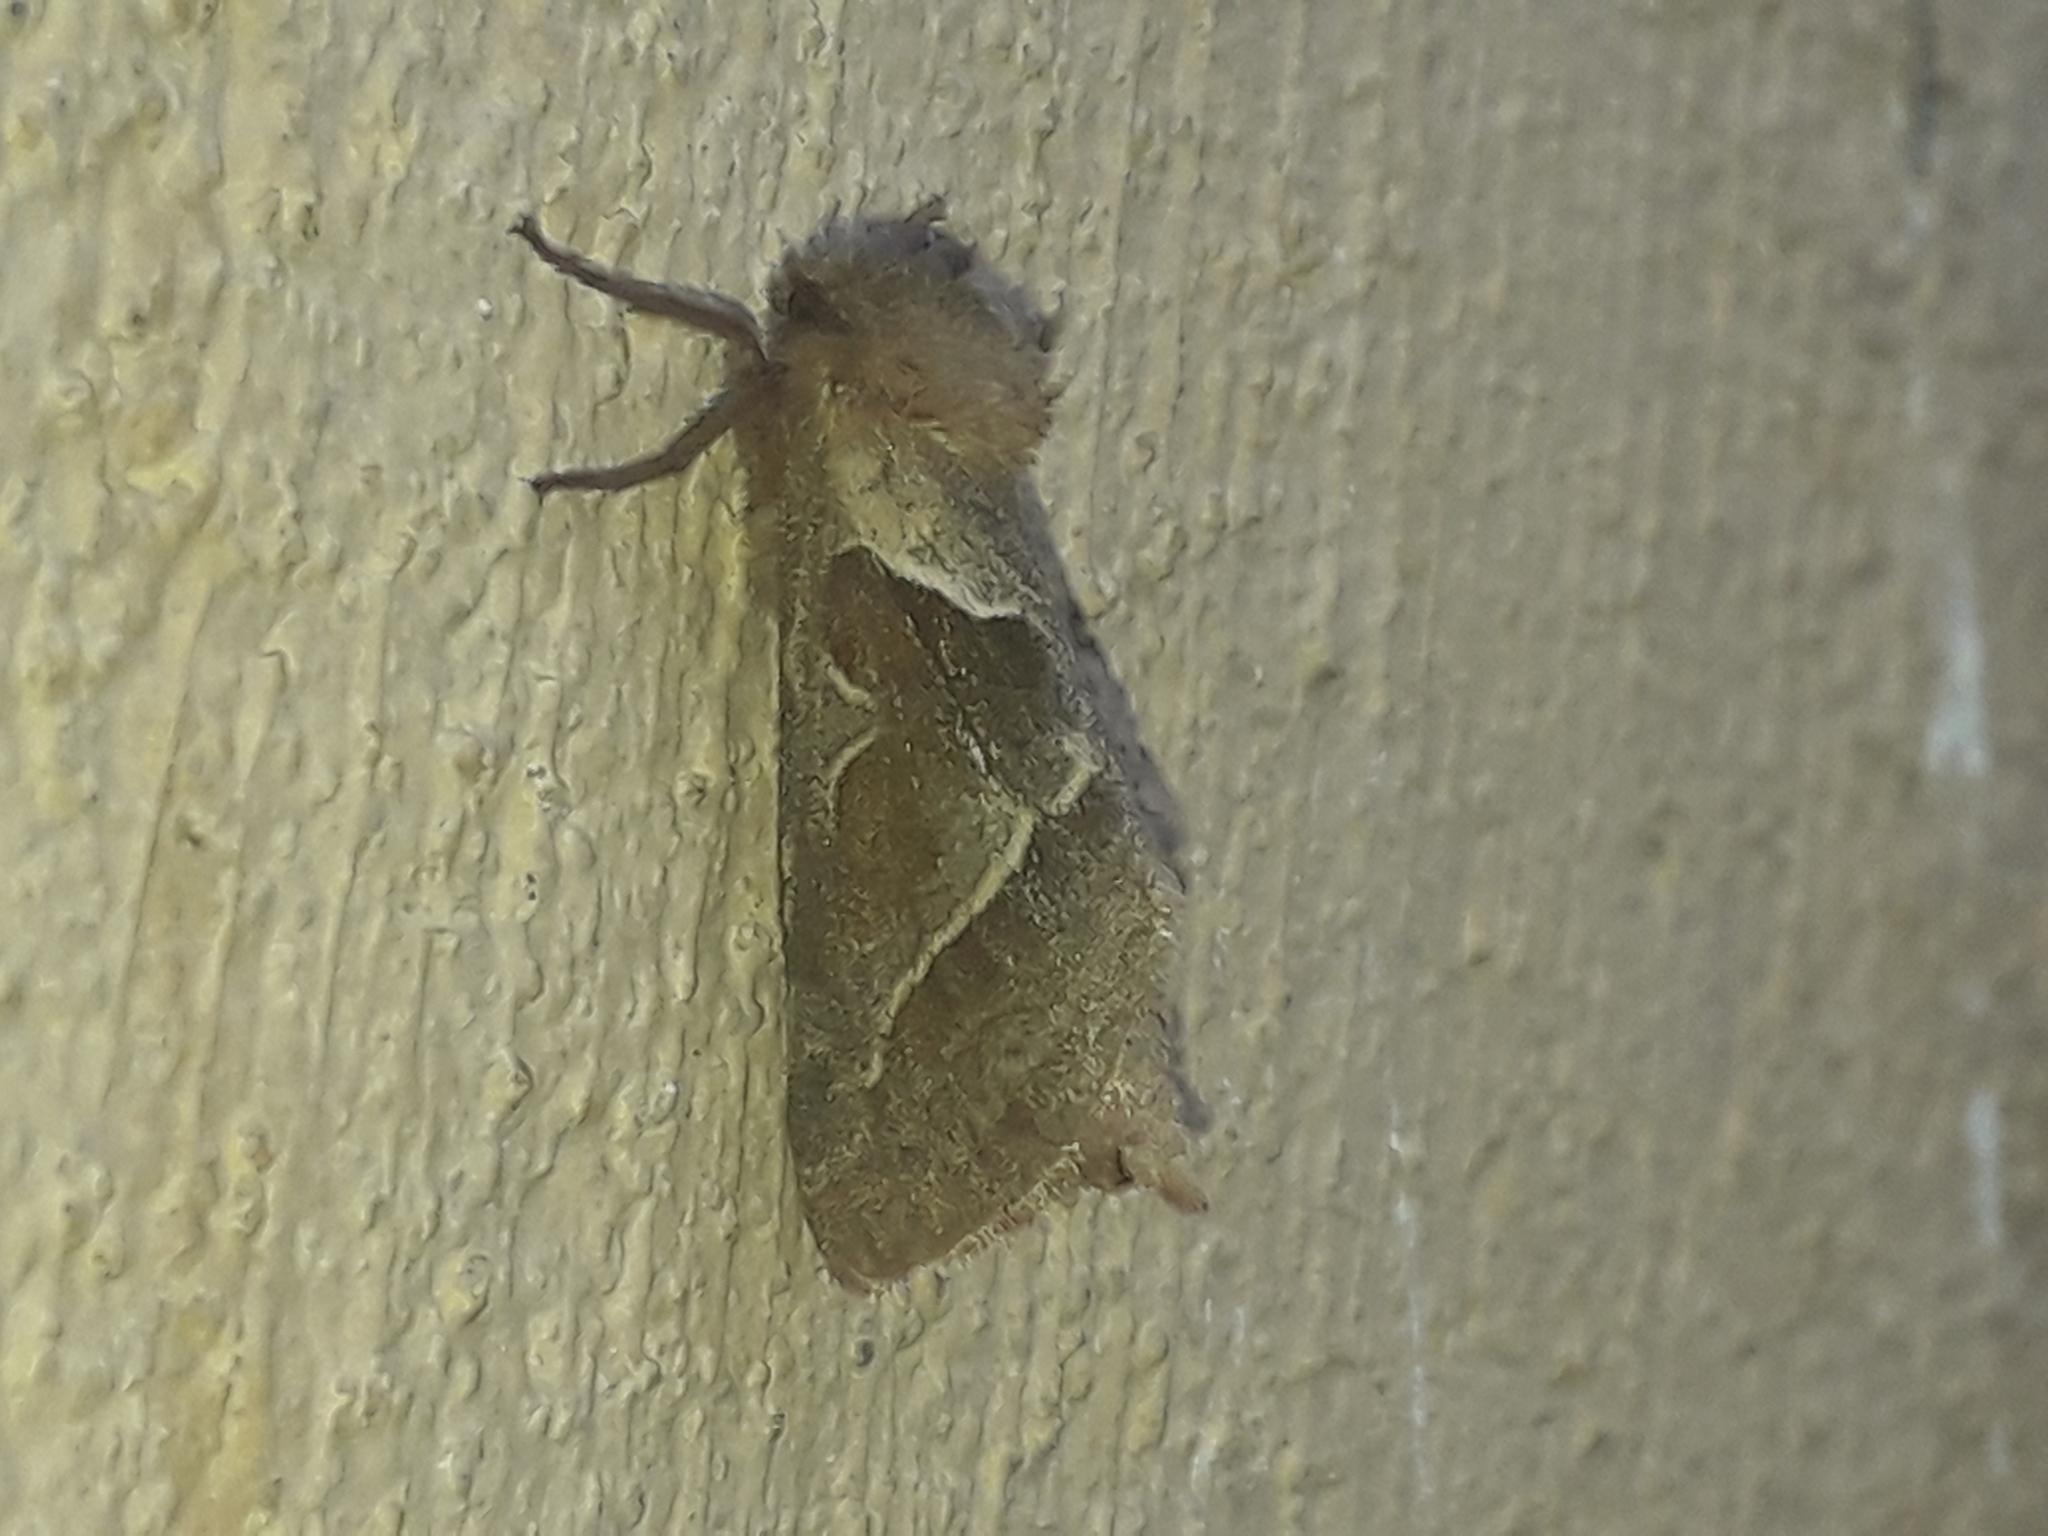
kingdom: Animalia
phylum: Arthropoda
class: Insecta
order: Lepidoptera
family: Hepialidae
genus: Triodia
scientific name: Triodia sylvina
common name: Orange swift
